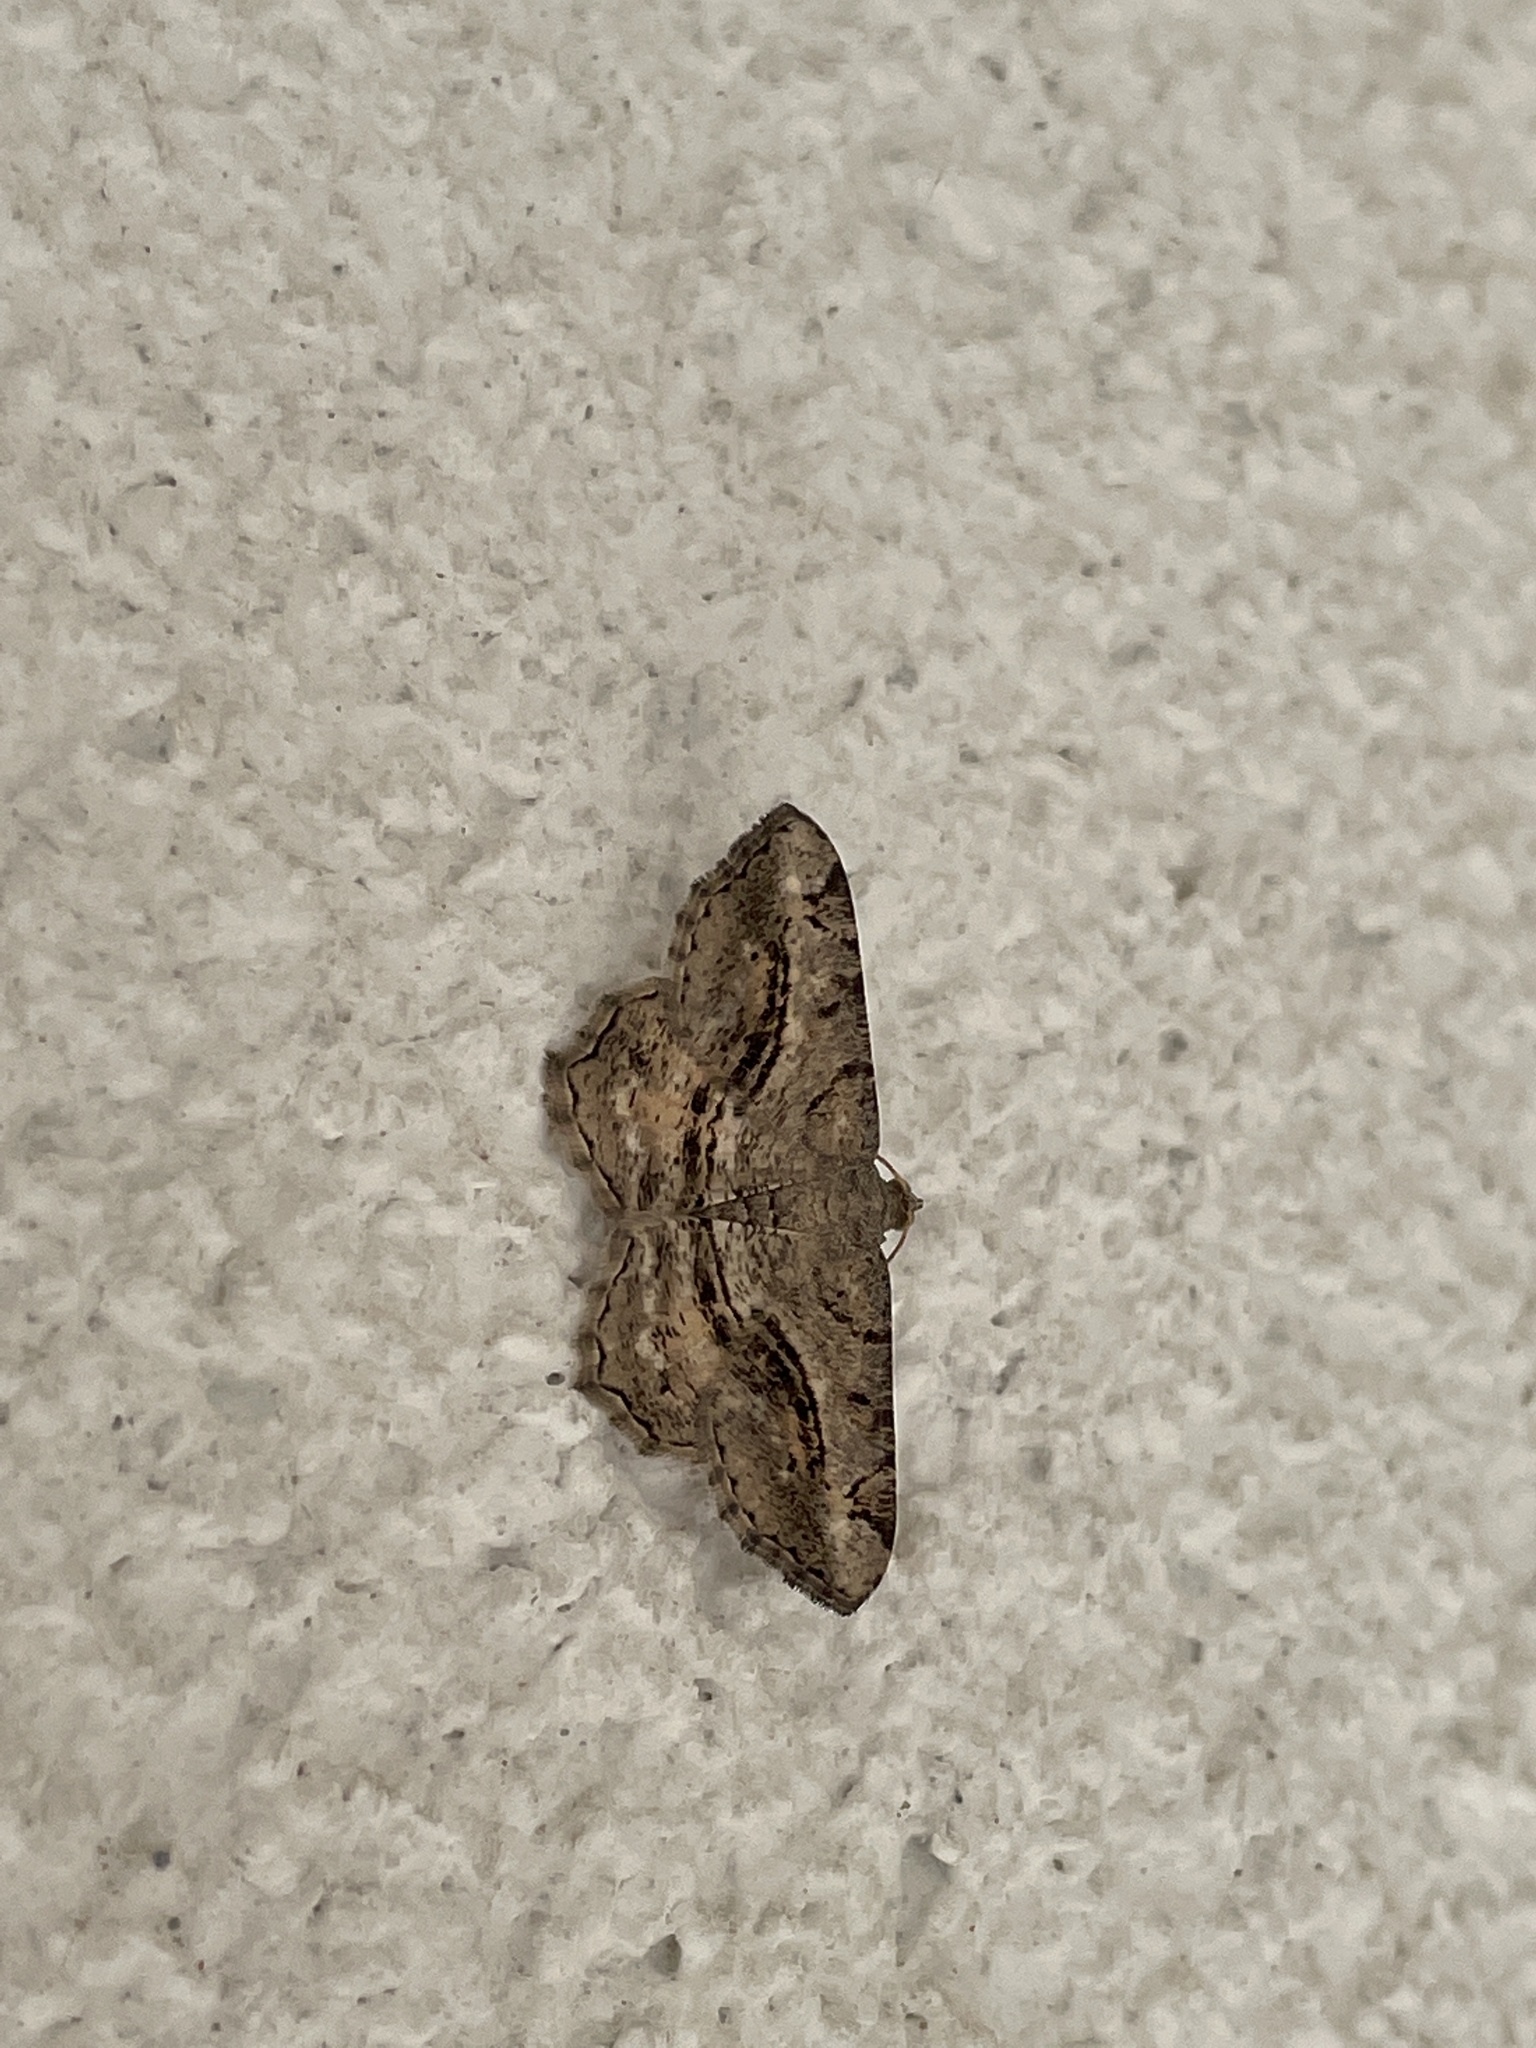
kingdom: Animalia
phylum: Arthropoda
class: Insecta
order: Lepidoptera
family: Geometridae
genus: Chiasmia
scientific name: Chiasmia aestimaria
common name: Tamarisk peacock
